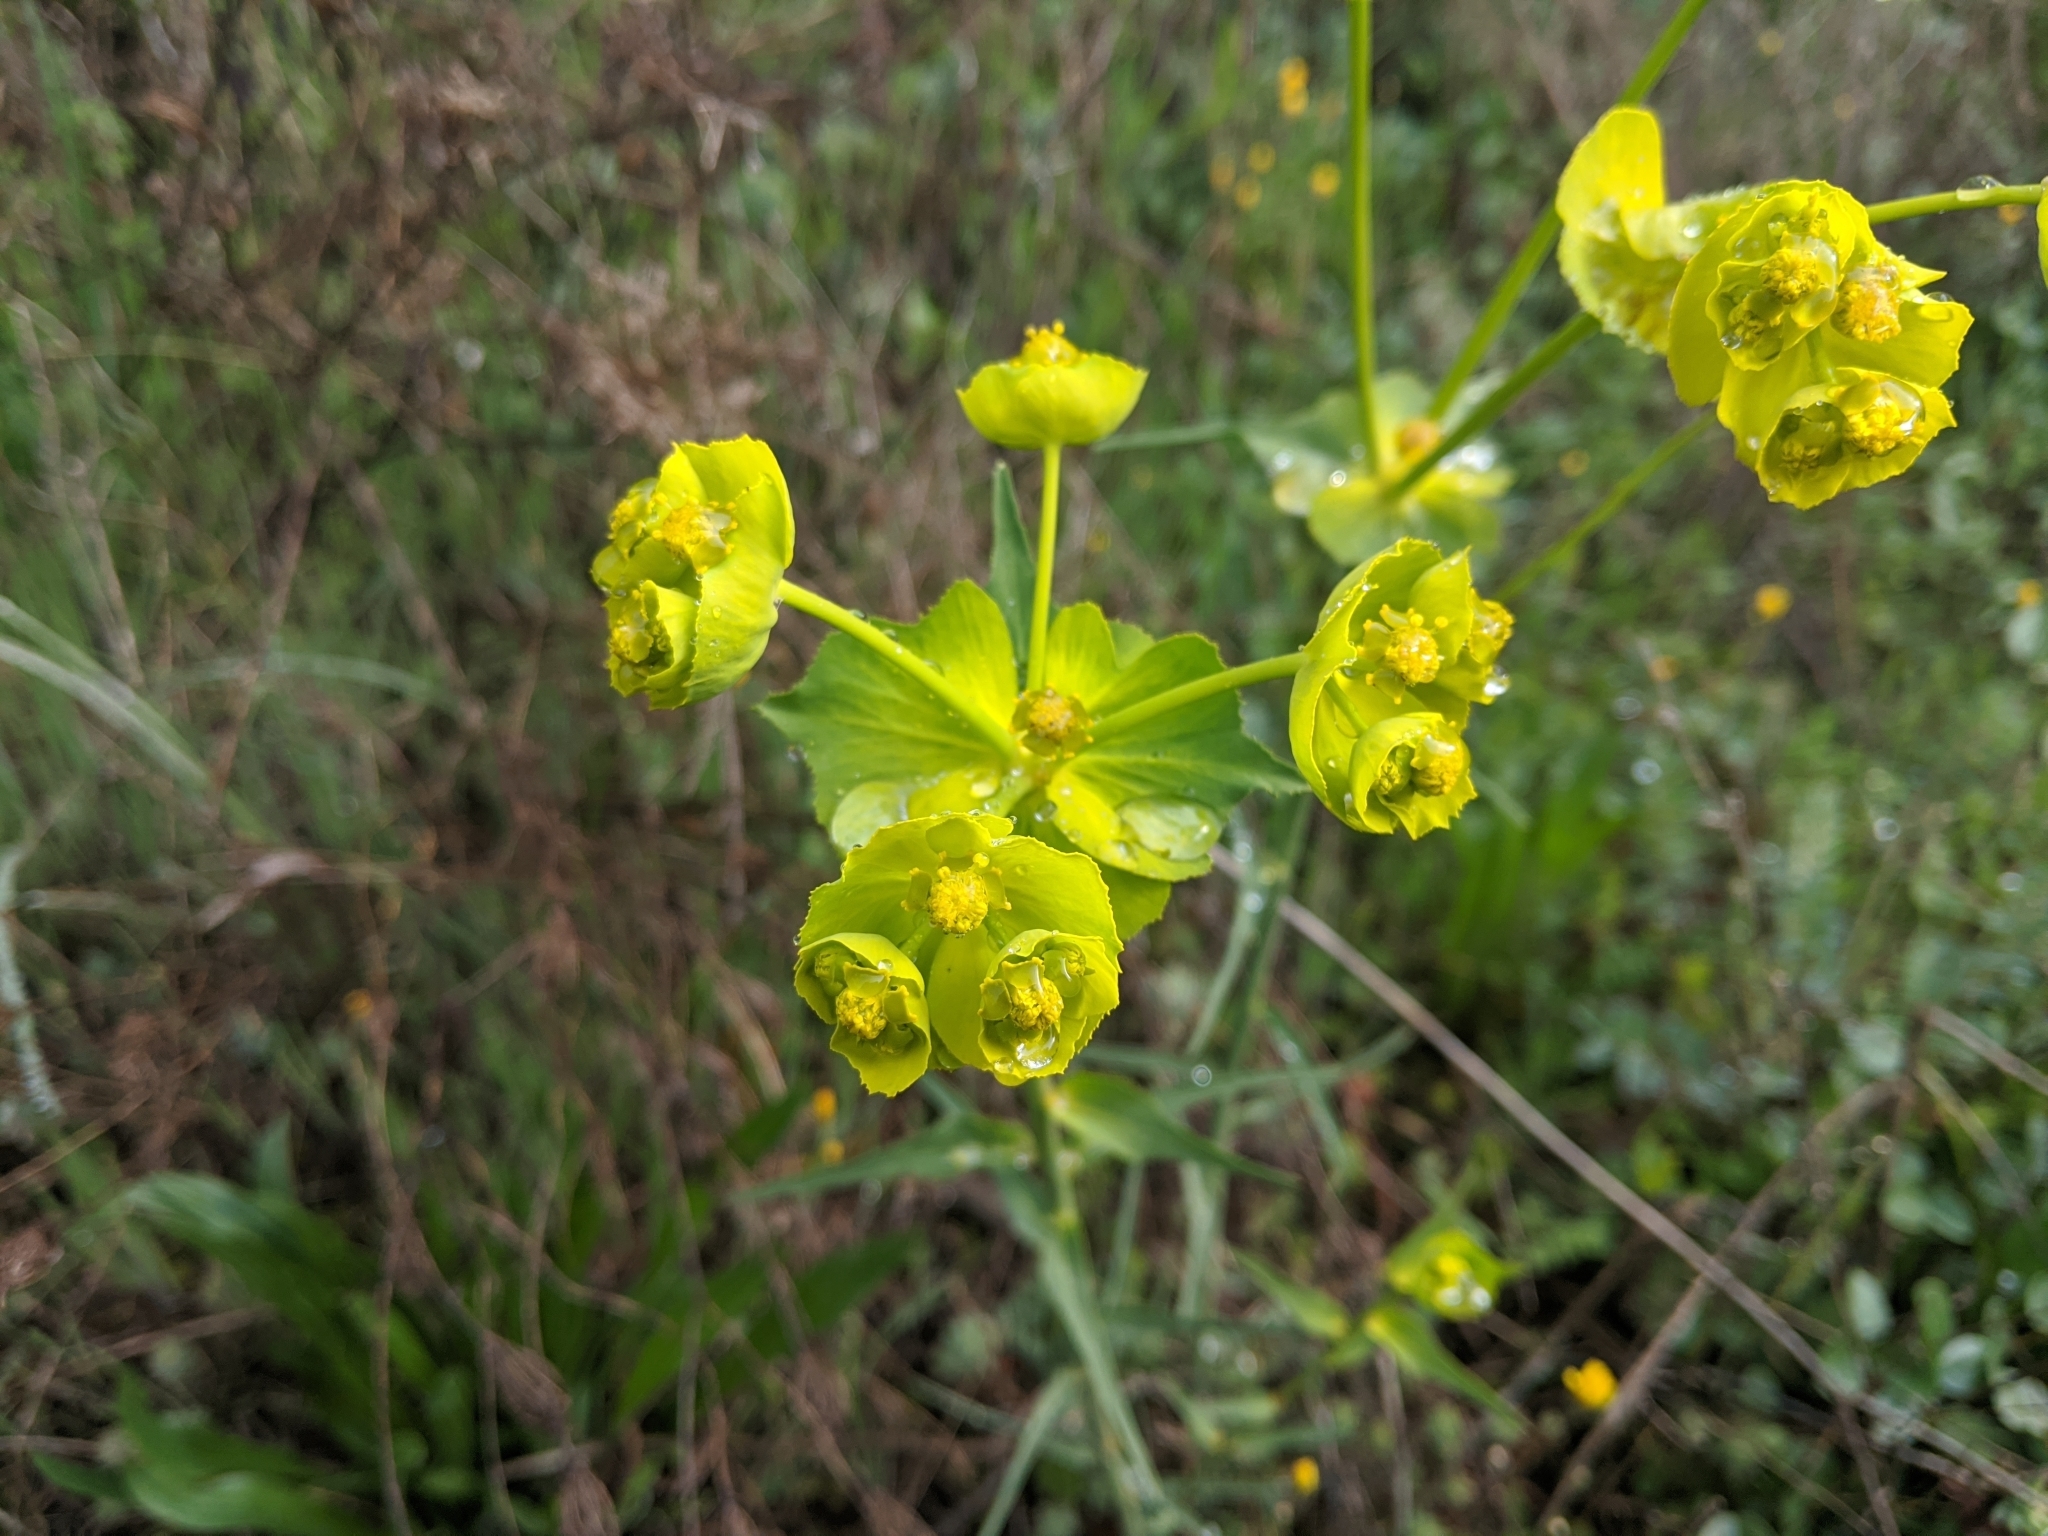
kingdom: Plantae
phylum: Tracheophyta
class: Magnoliopsida
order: Malpighiales
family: Euphorbiaceae
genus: Euphorbia
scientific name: Euphorbia serrata
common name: Serrate spurge
